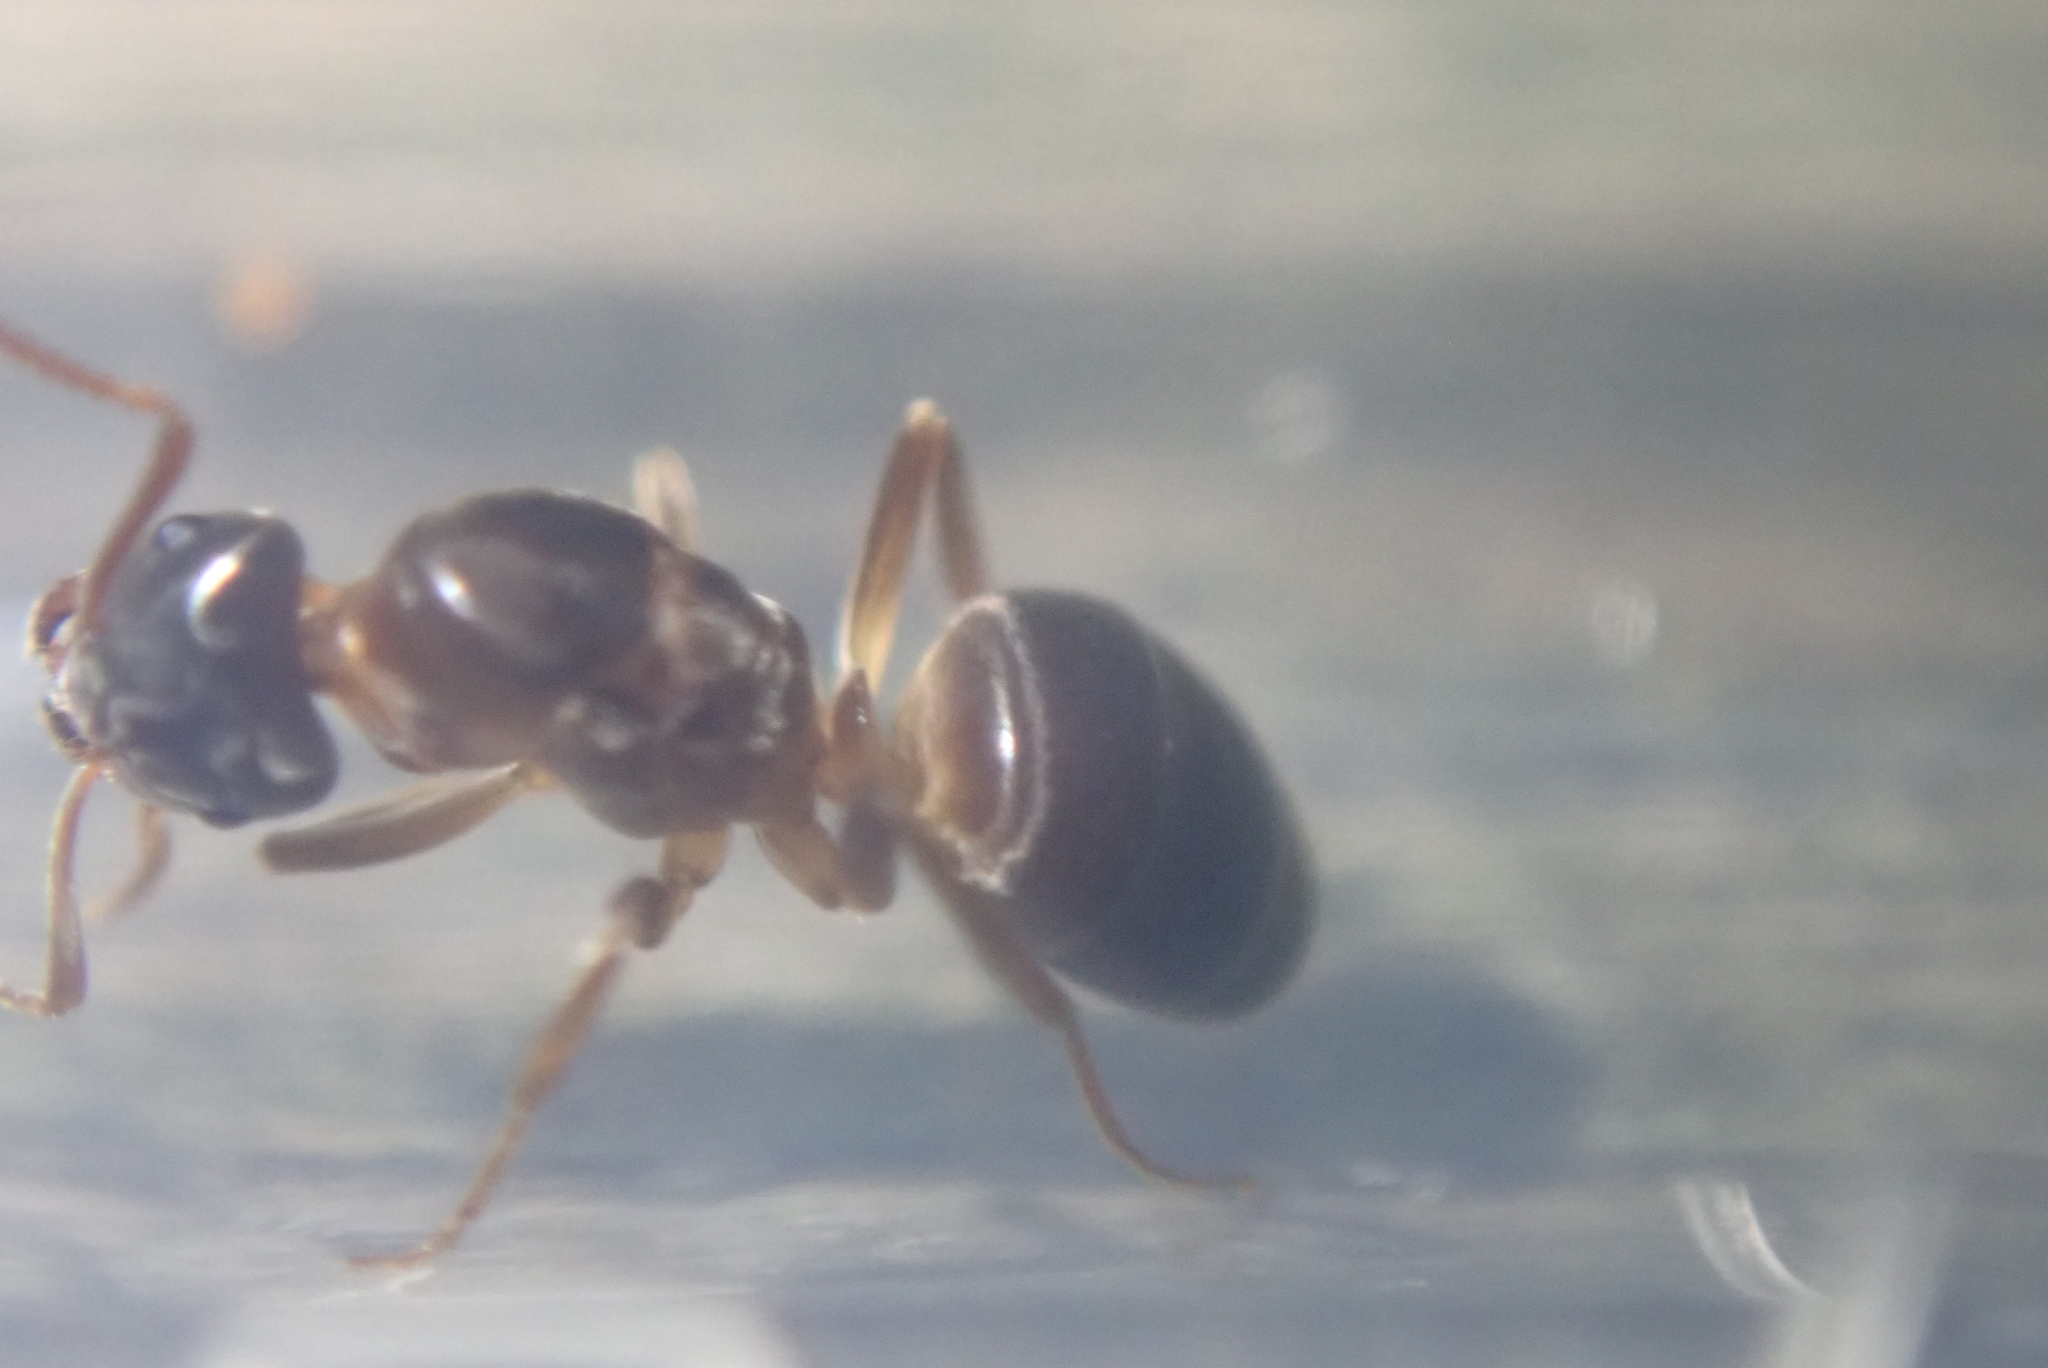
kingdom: Animalia
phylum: Arthropoda
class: Insecta
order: Hymenoptera
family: Formicidae
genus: Lasius
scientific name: Lasius aphidicola
